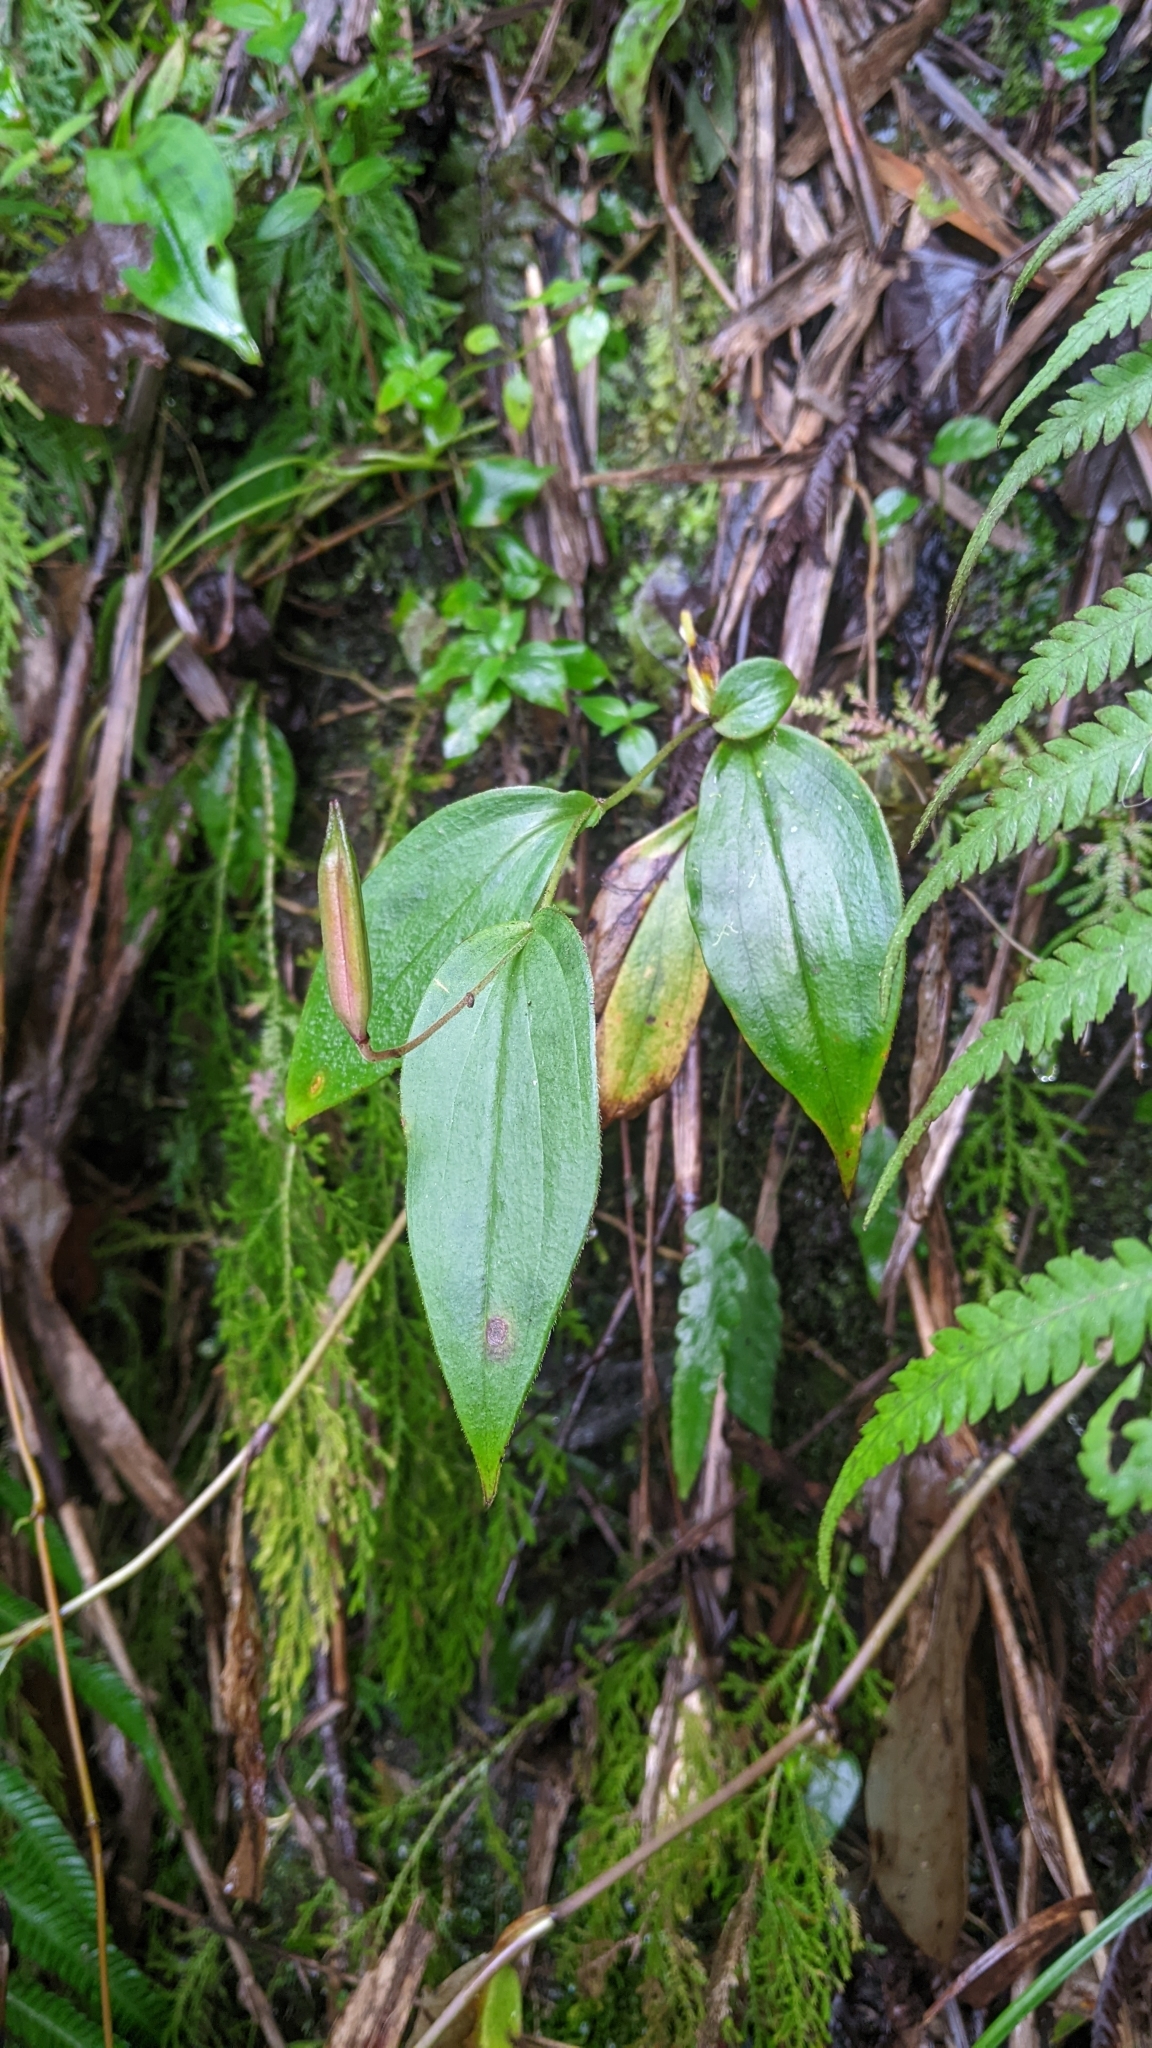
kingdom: Plantae
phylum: Tracheophyta
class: Liliopsida
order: Liliales
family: Liliaceae
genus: Tricyrtis
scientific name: Tricyrtis formosana
